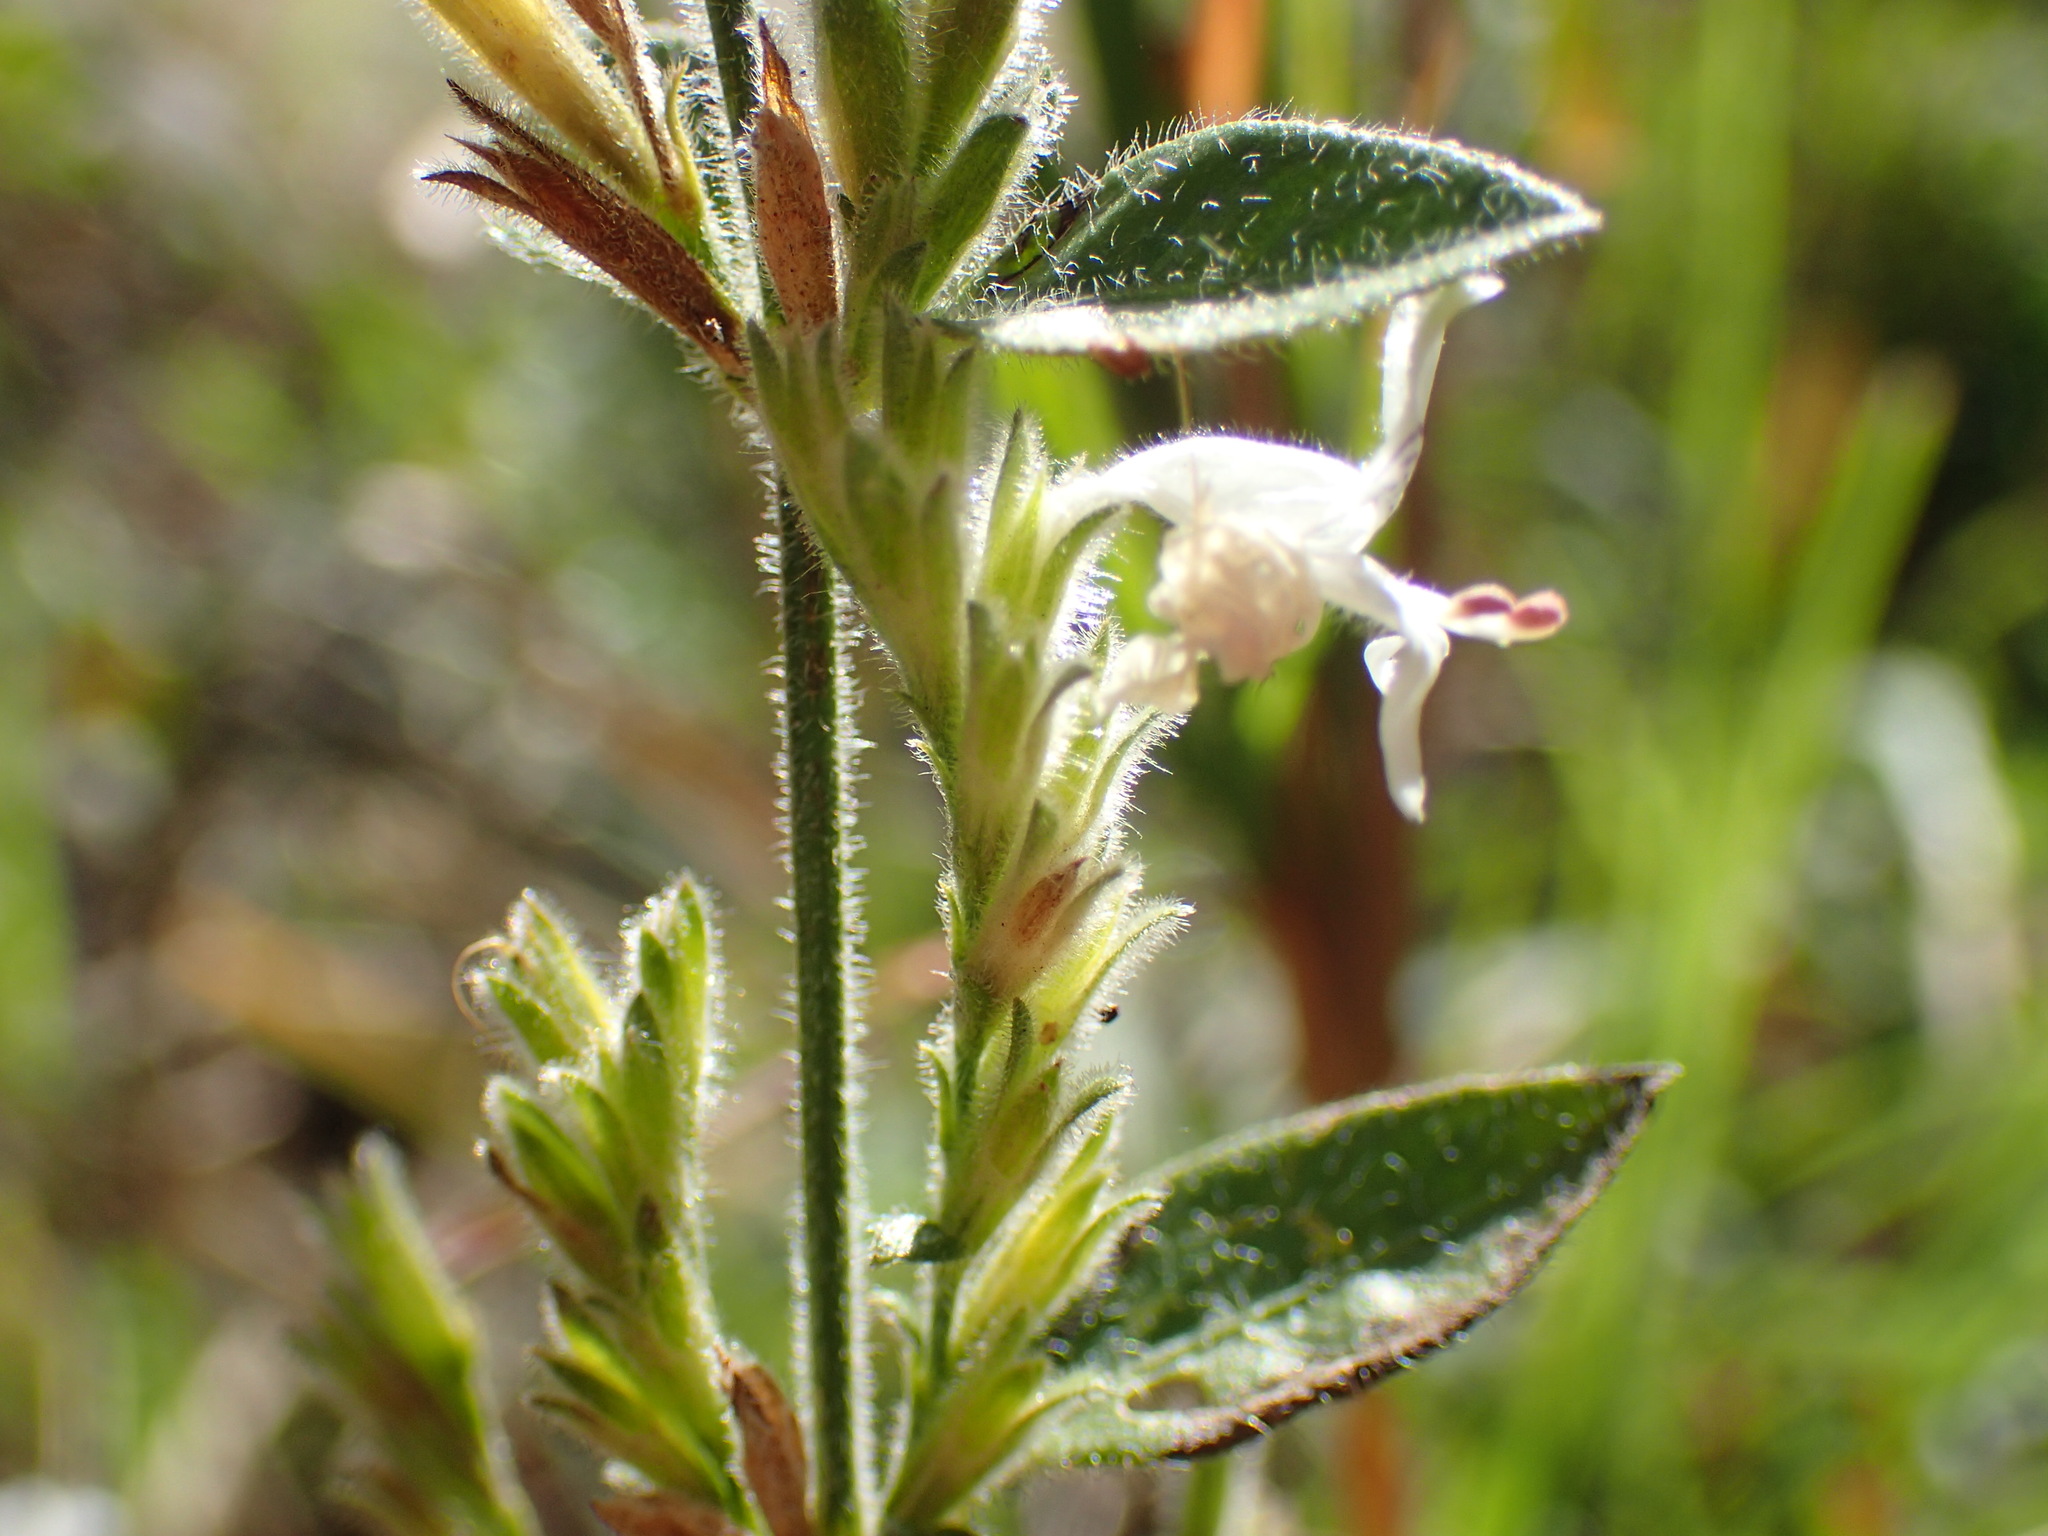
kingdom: Plantae
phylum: Tracheophyta
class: Magnoliopsida
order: Lamiales
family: Acanthaceae
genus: Hypoestes
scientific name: Hypoestes forskaolii
